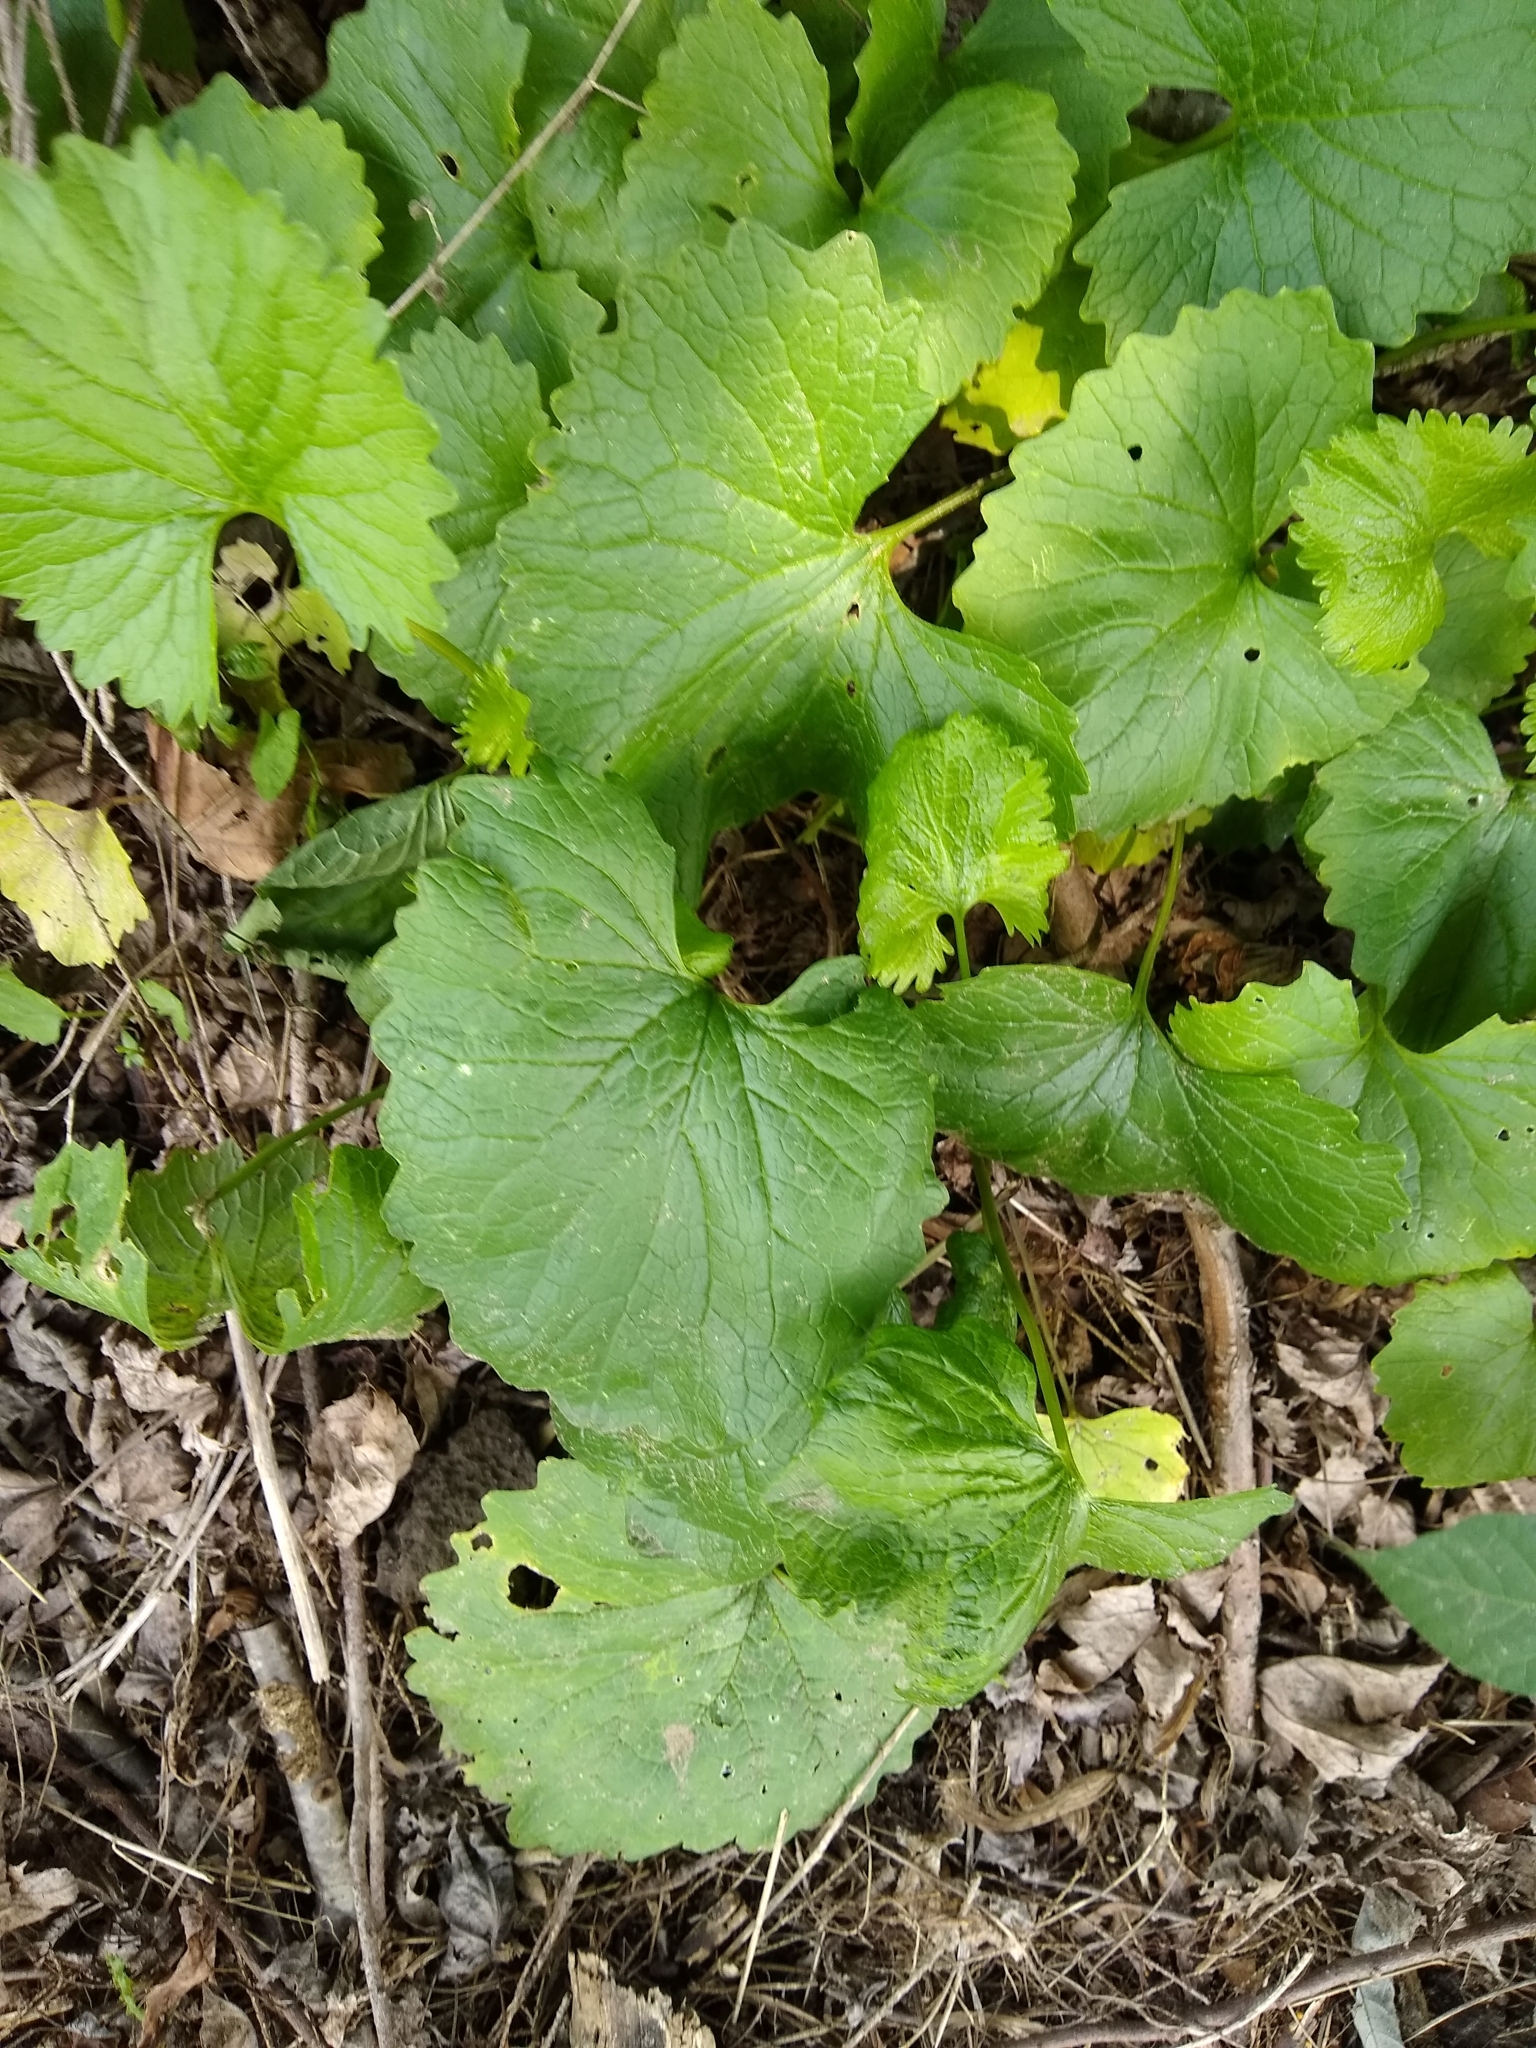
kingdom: Plantae
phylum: Tracheophyta
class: Magnoliopsida
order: Brassicales
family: Brassicaceae
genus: Alliaria
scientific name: Alliaria petiolata
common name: Garlic mustard
